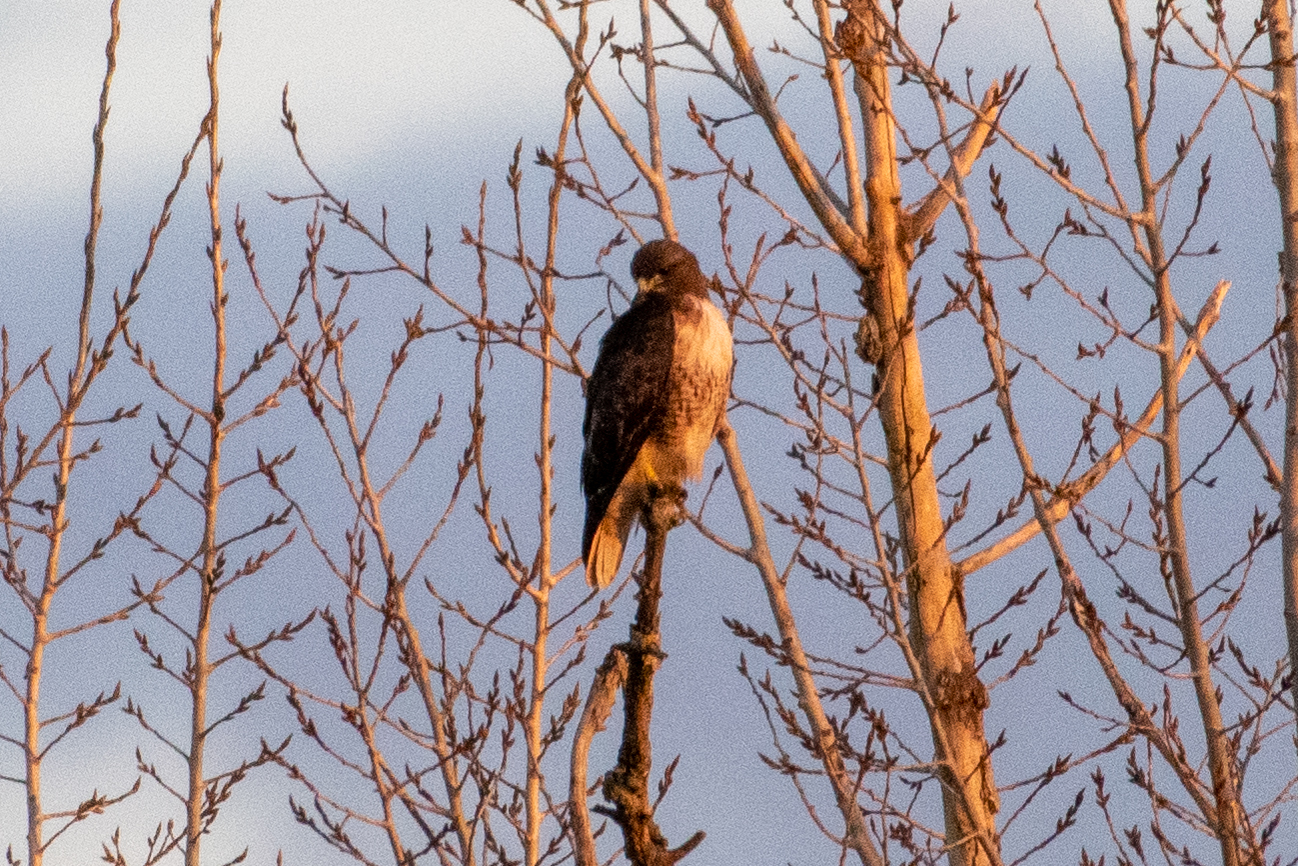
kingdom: Animalia
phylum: Chordata
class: Aves
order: Accipitriformes
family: Accipitridae
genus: Buteo
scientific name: Buteo jamaicensis
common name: Red-tailed hawk
